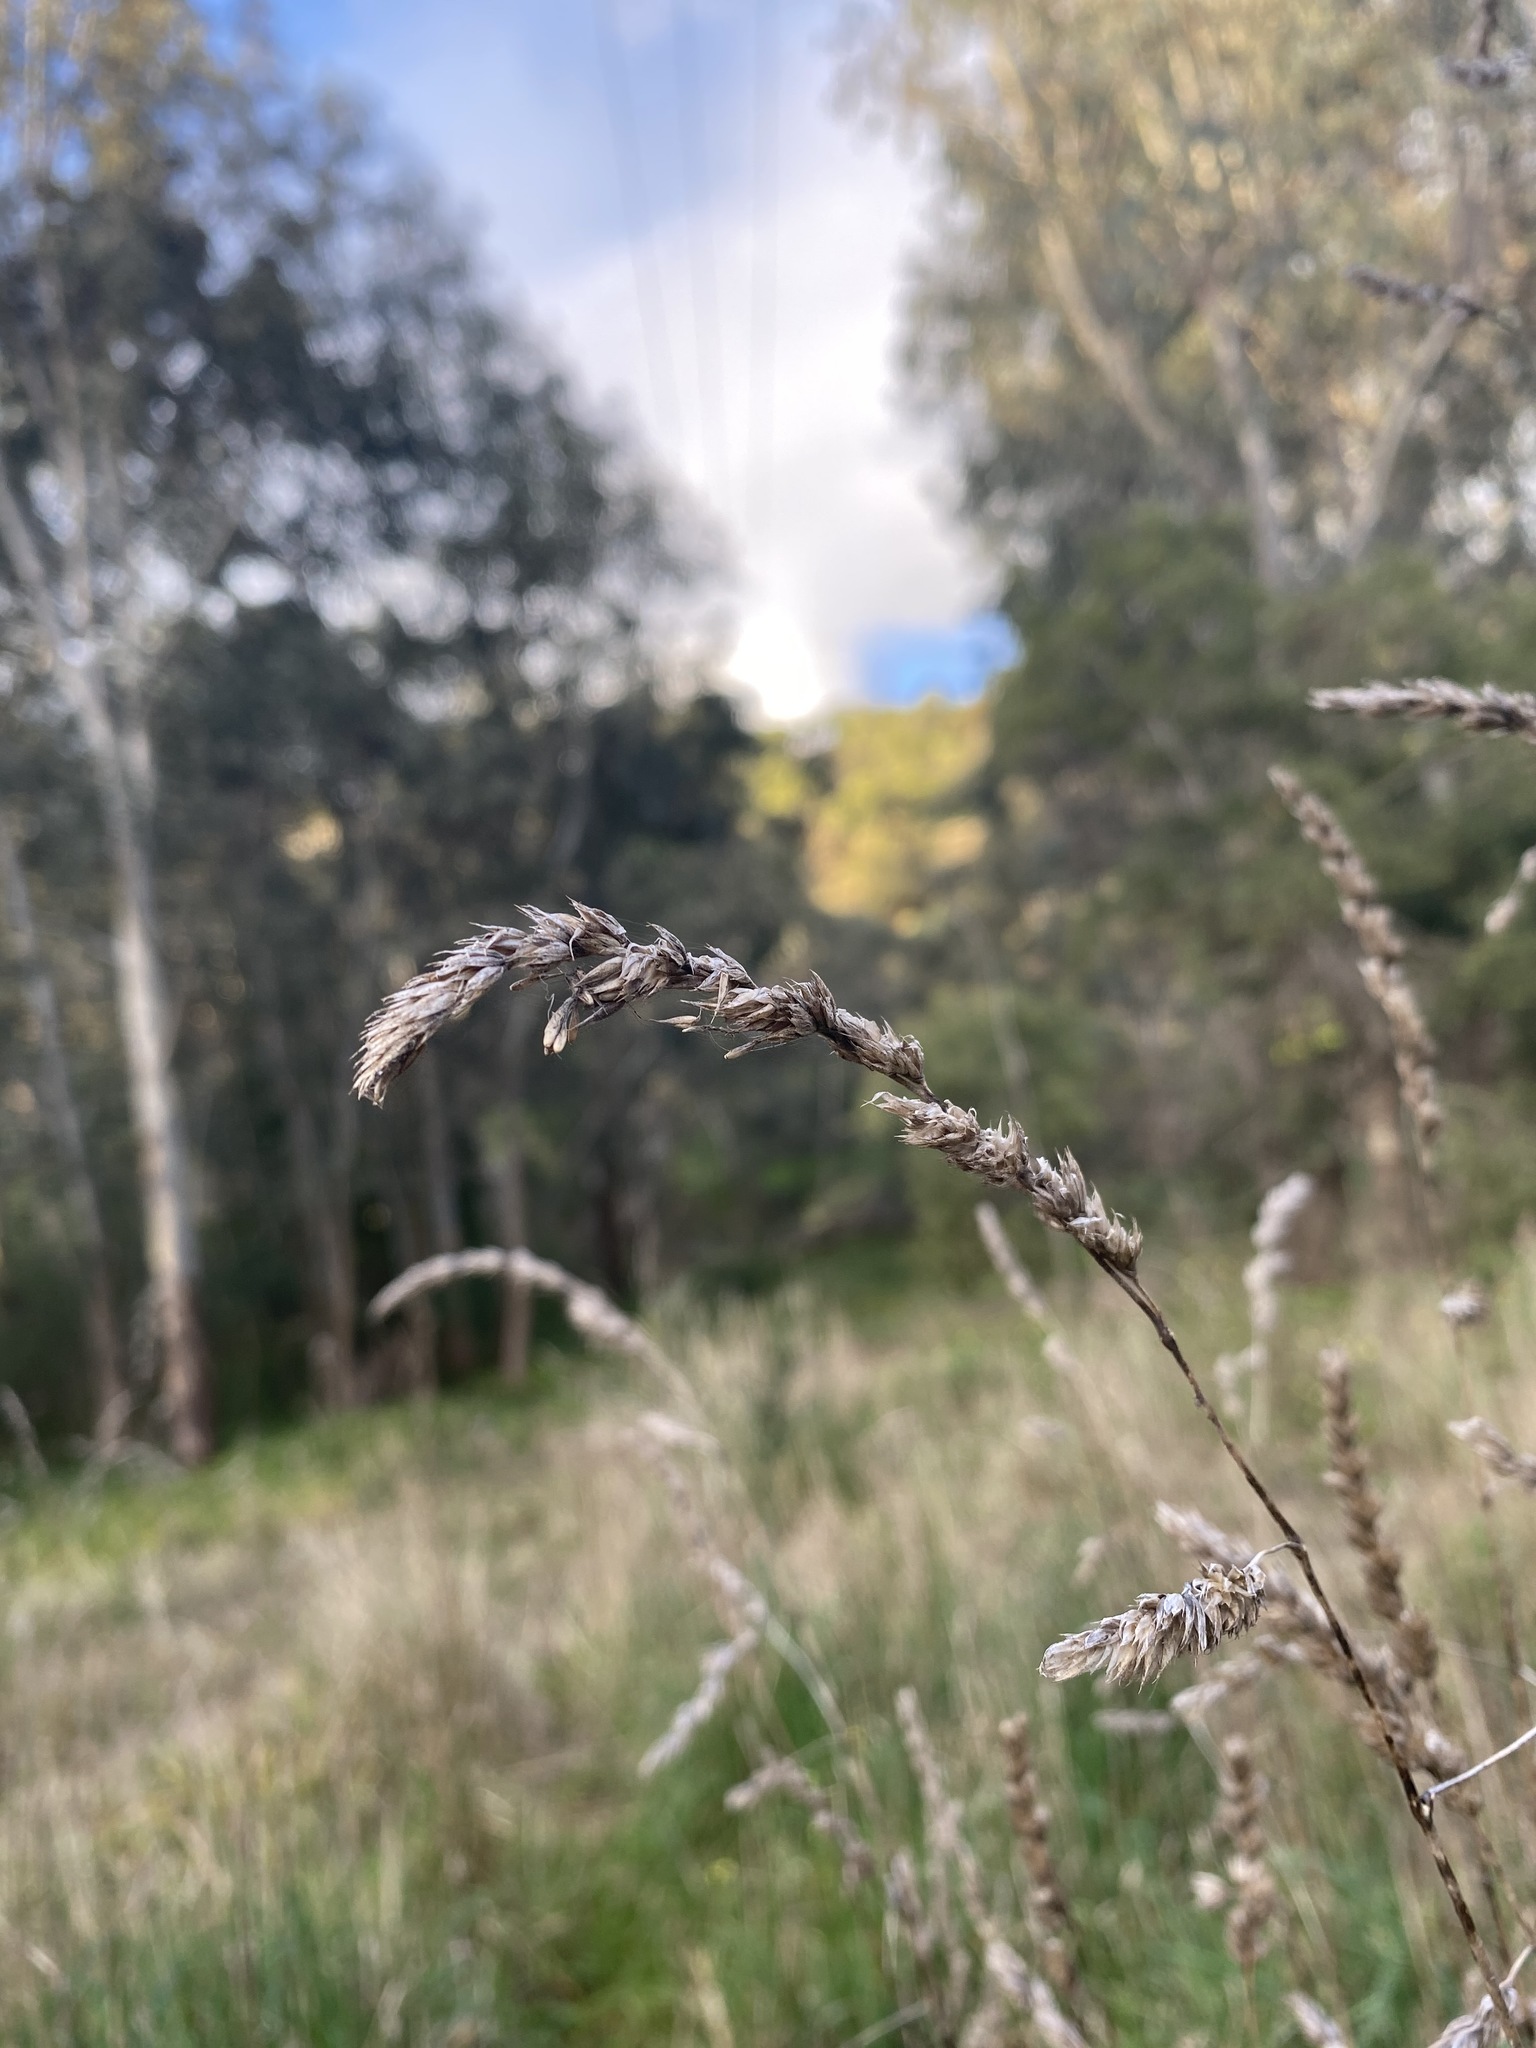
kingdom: Plantae
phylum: Tracheophyta
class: Liliopsida
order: Poales
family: Poaceae
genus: Dactylis
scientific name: Dactylis glomerata
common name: Orchardgrass
